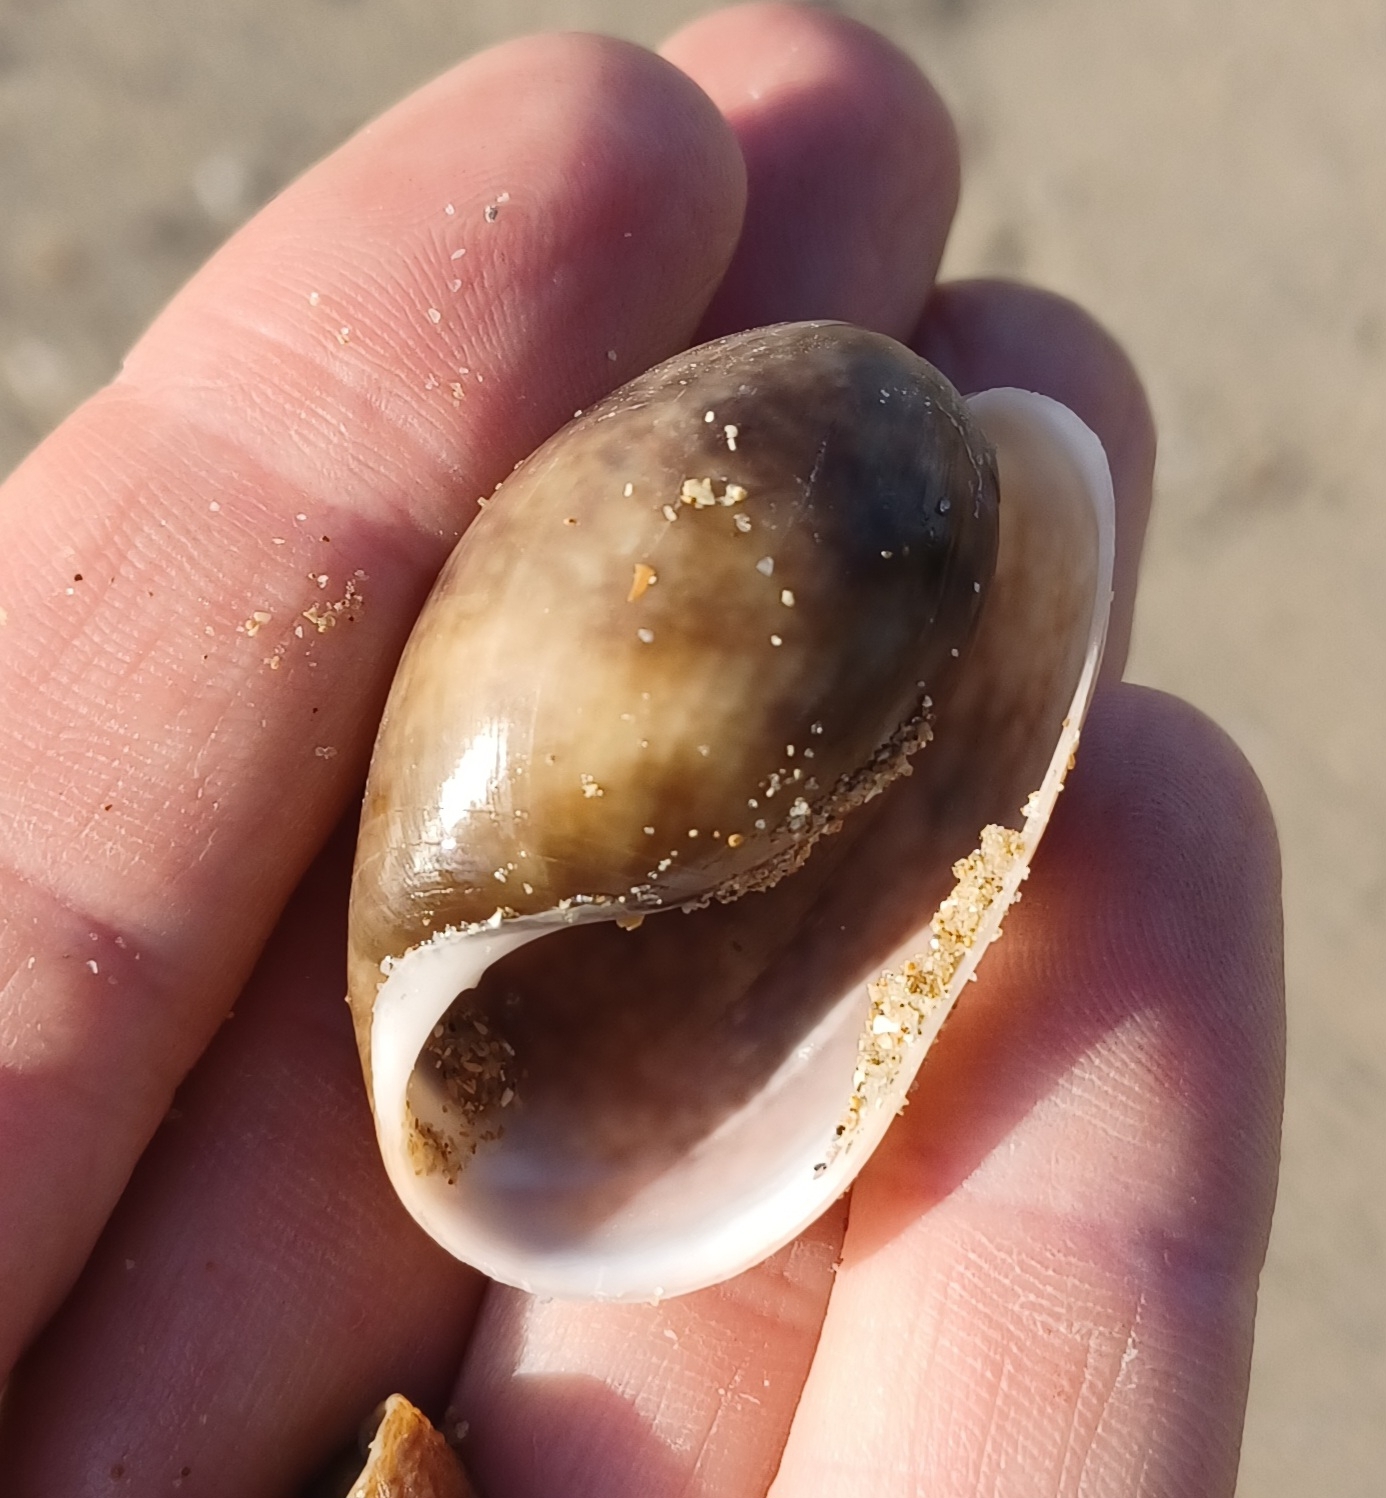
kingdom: Animalia
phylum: Mollusca
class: Gastropoda
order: Cephalaspidea
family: Bullidae
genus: Bulla
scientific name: Bulla mabillei
